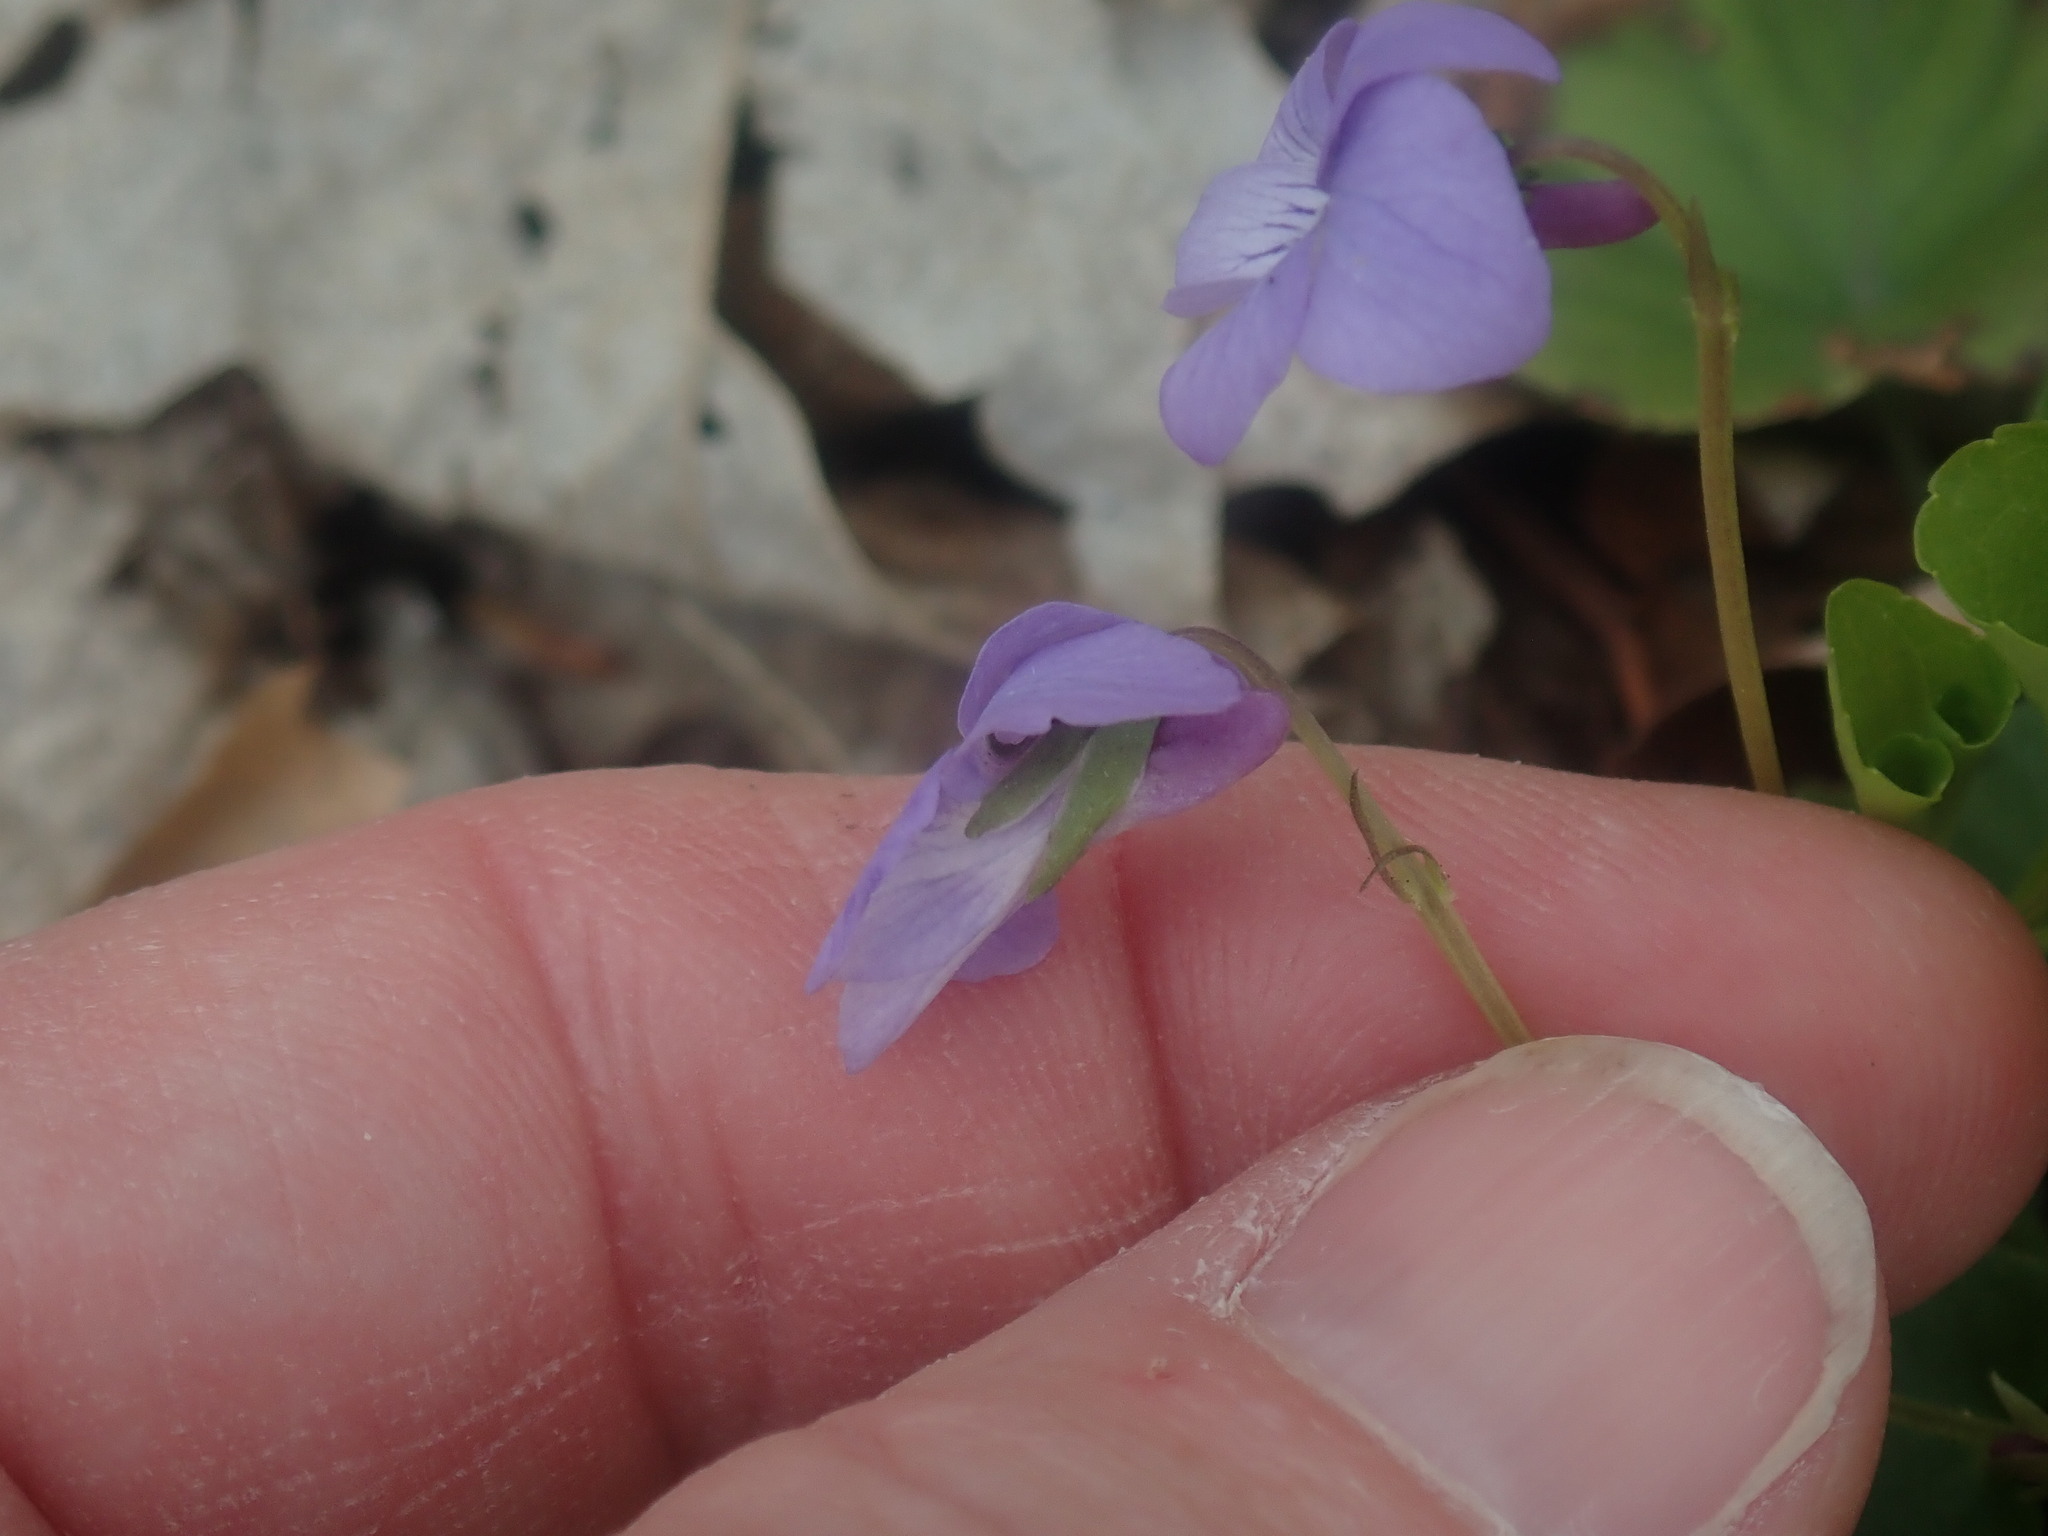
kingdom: Plantae
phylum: Tracheophyta
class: Magnoliopsida
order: Malpighiales
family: Violaceae
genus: Viola
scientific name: Viola labradorica
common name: Labrador violet
